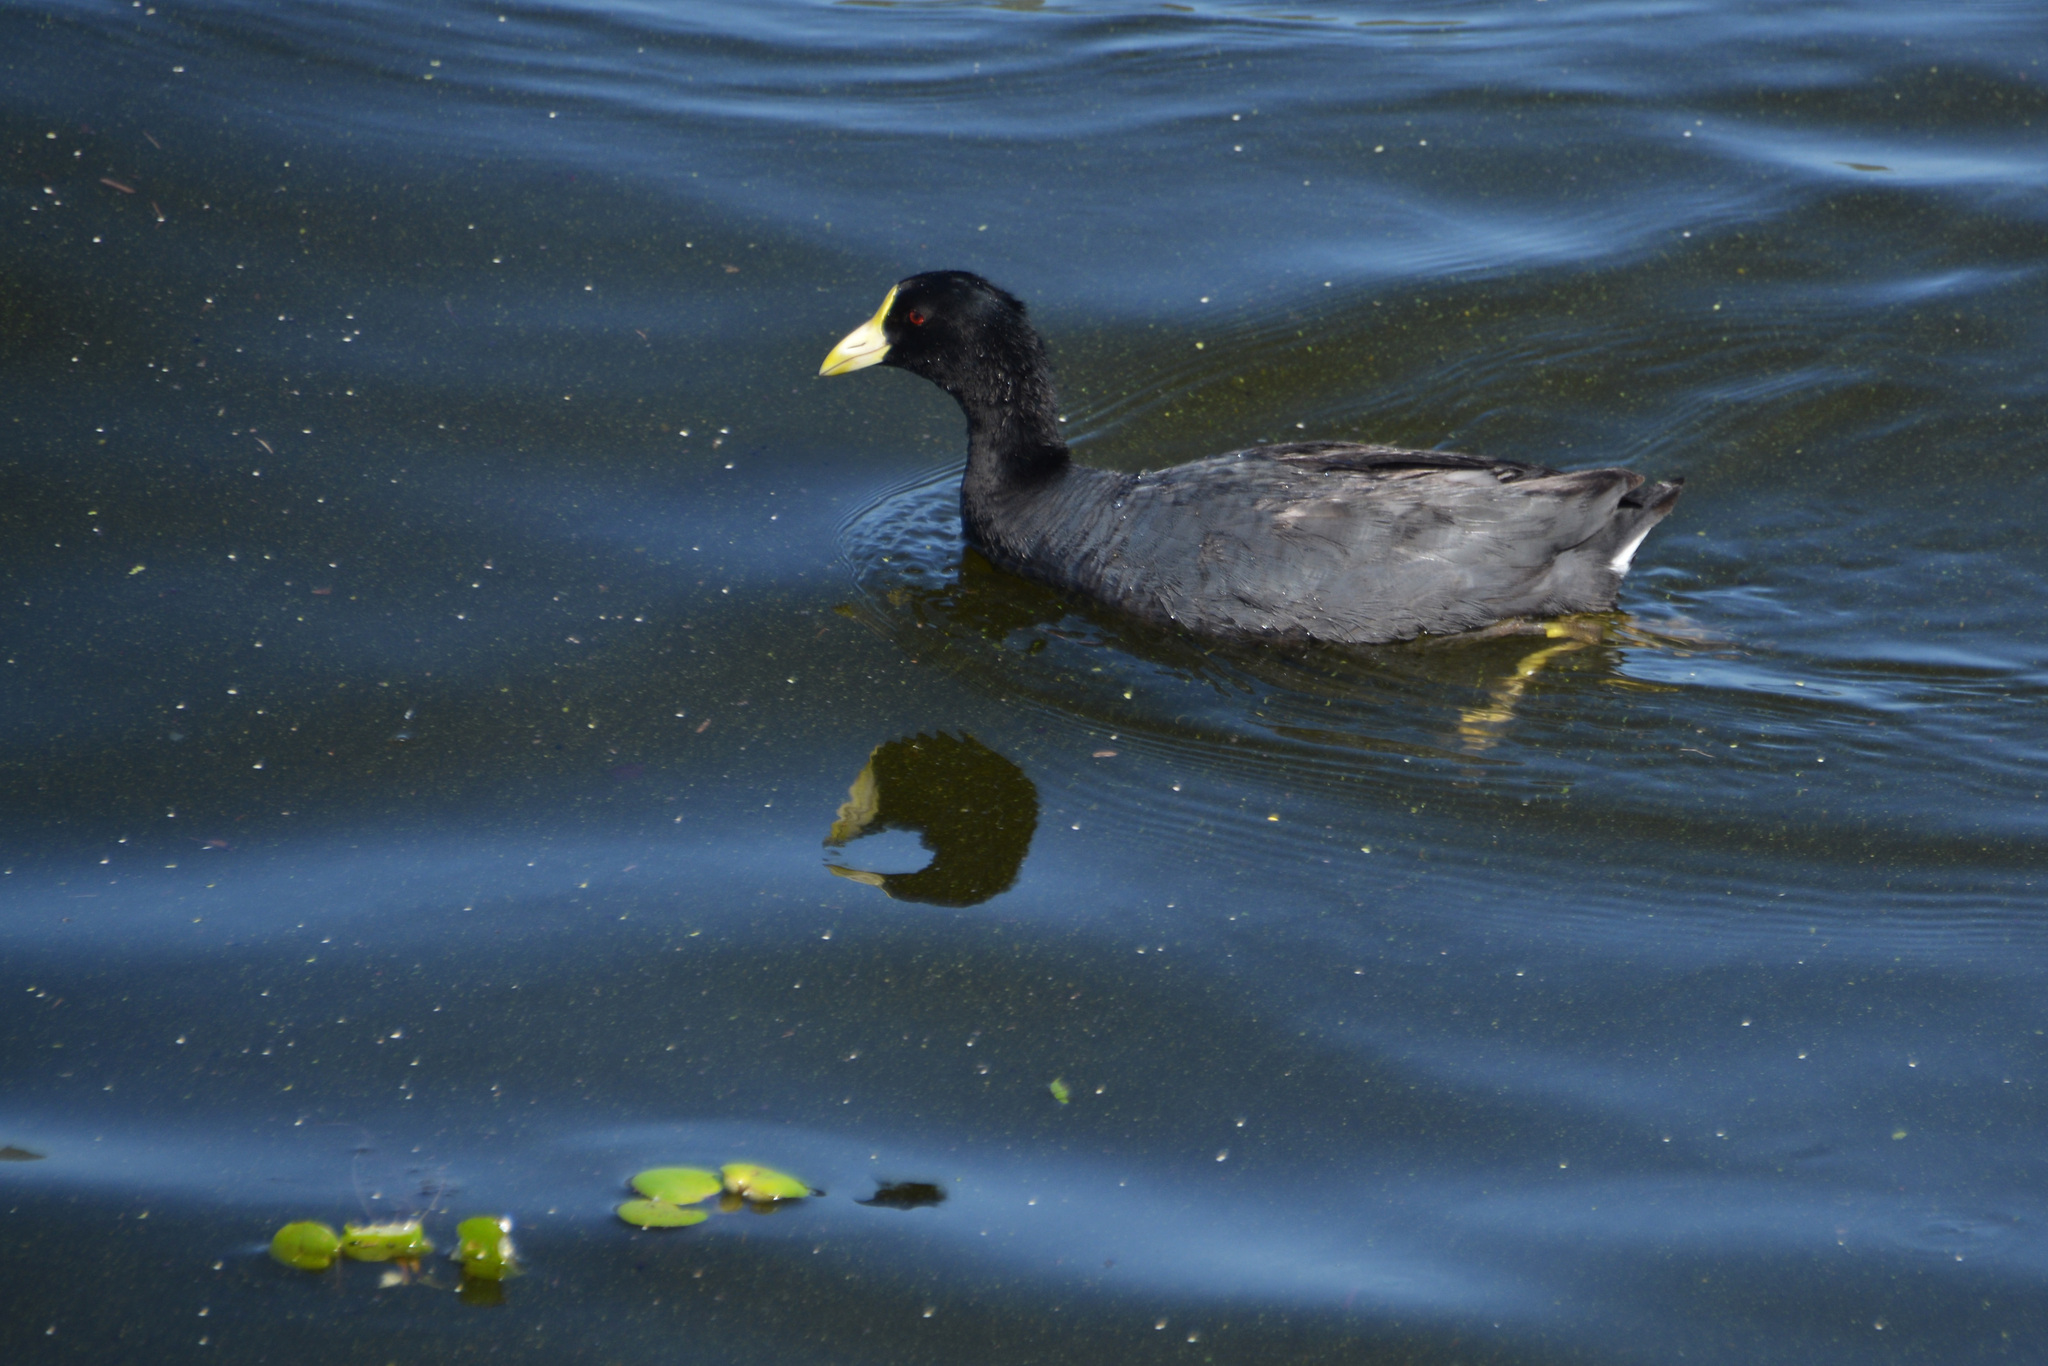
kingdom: Animalia
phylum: Chordata
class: Aves
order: Gruiformes
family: Rallidae
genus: Fulica
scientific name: Fulica leucoptera
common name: White-winged coot
